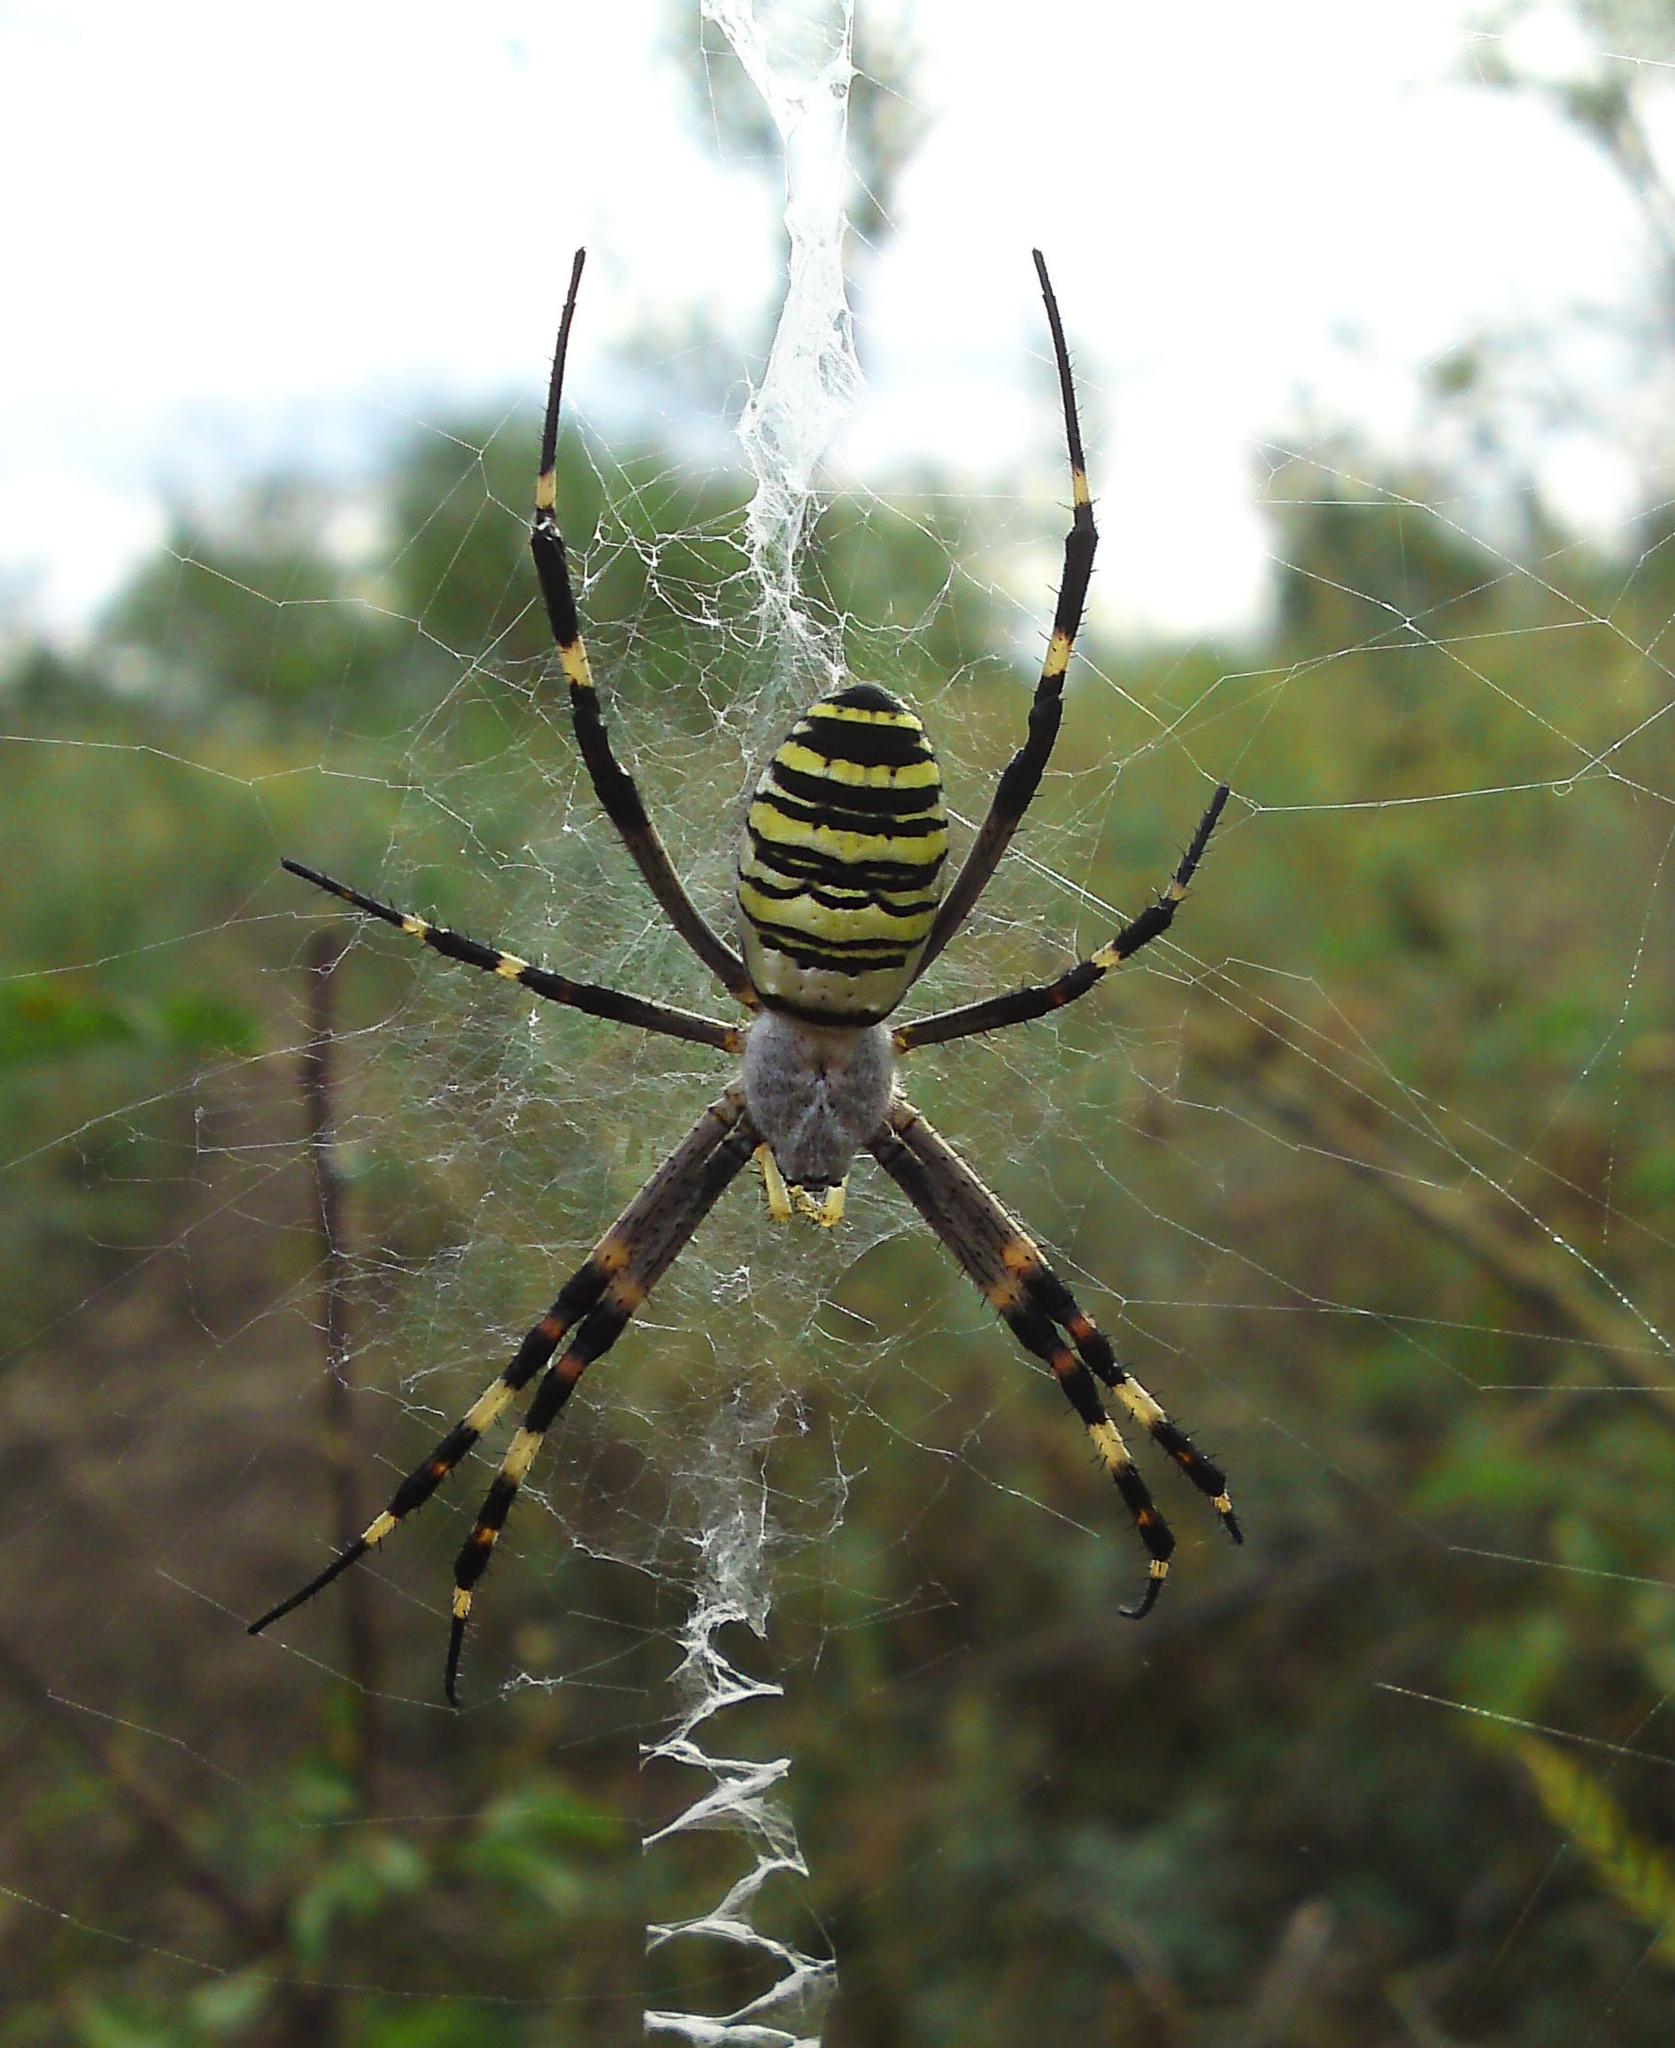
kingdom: Animalia
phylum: Arthropoda
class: Arachnida
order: Araneae
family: Araneidae
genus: Argiope
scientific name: Argiope bruennichi
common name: Wasp spider
